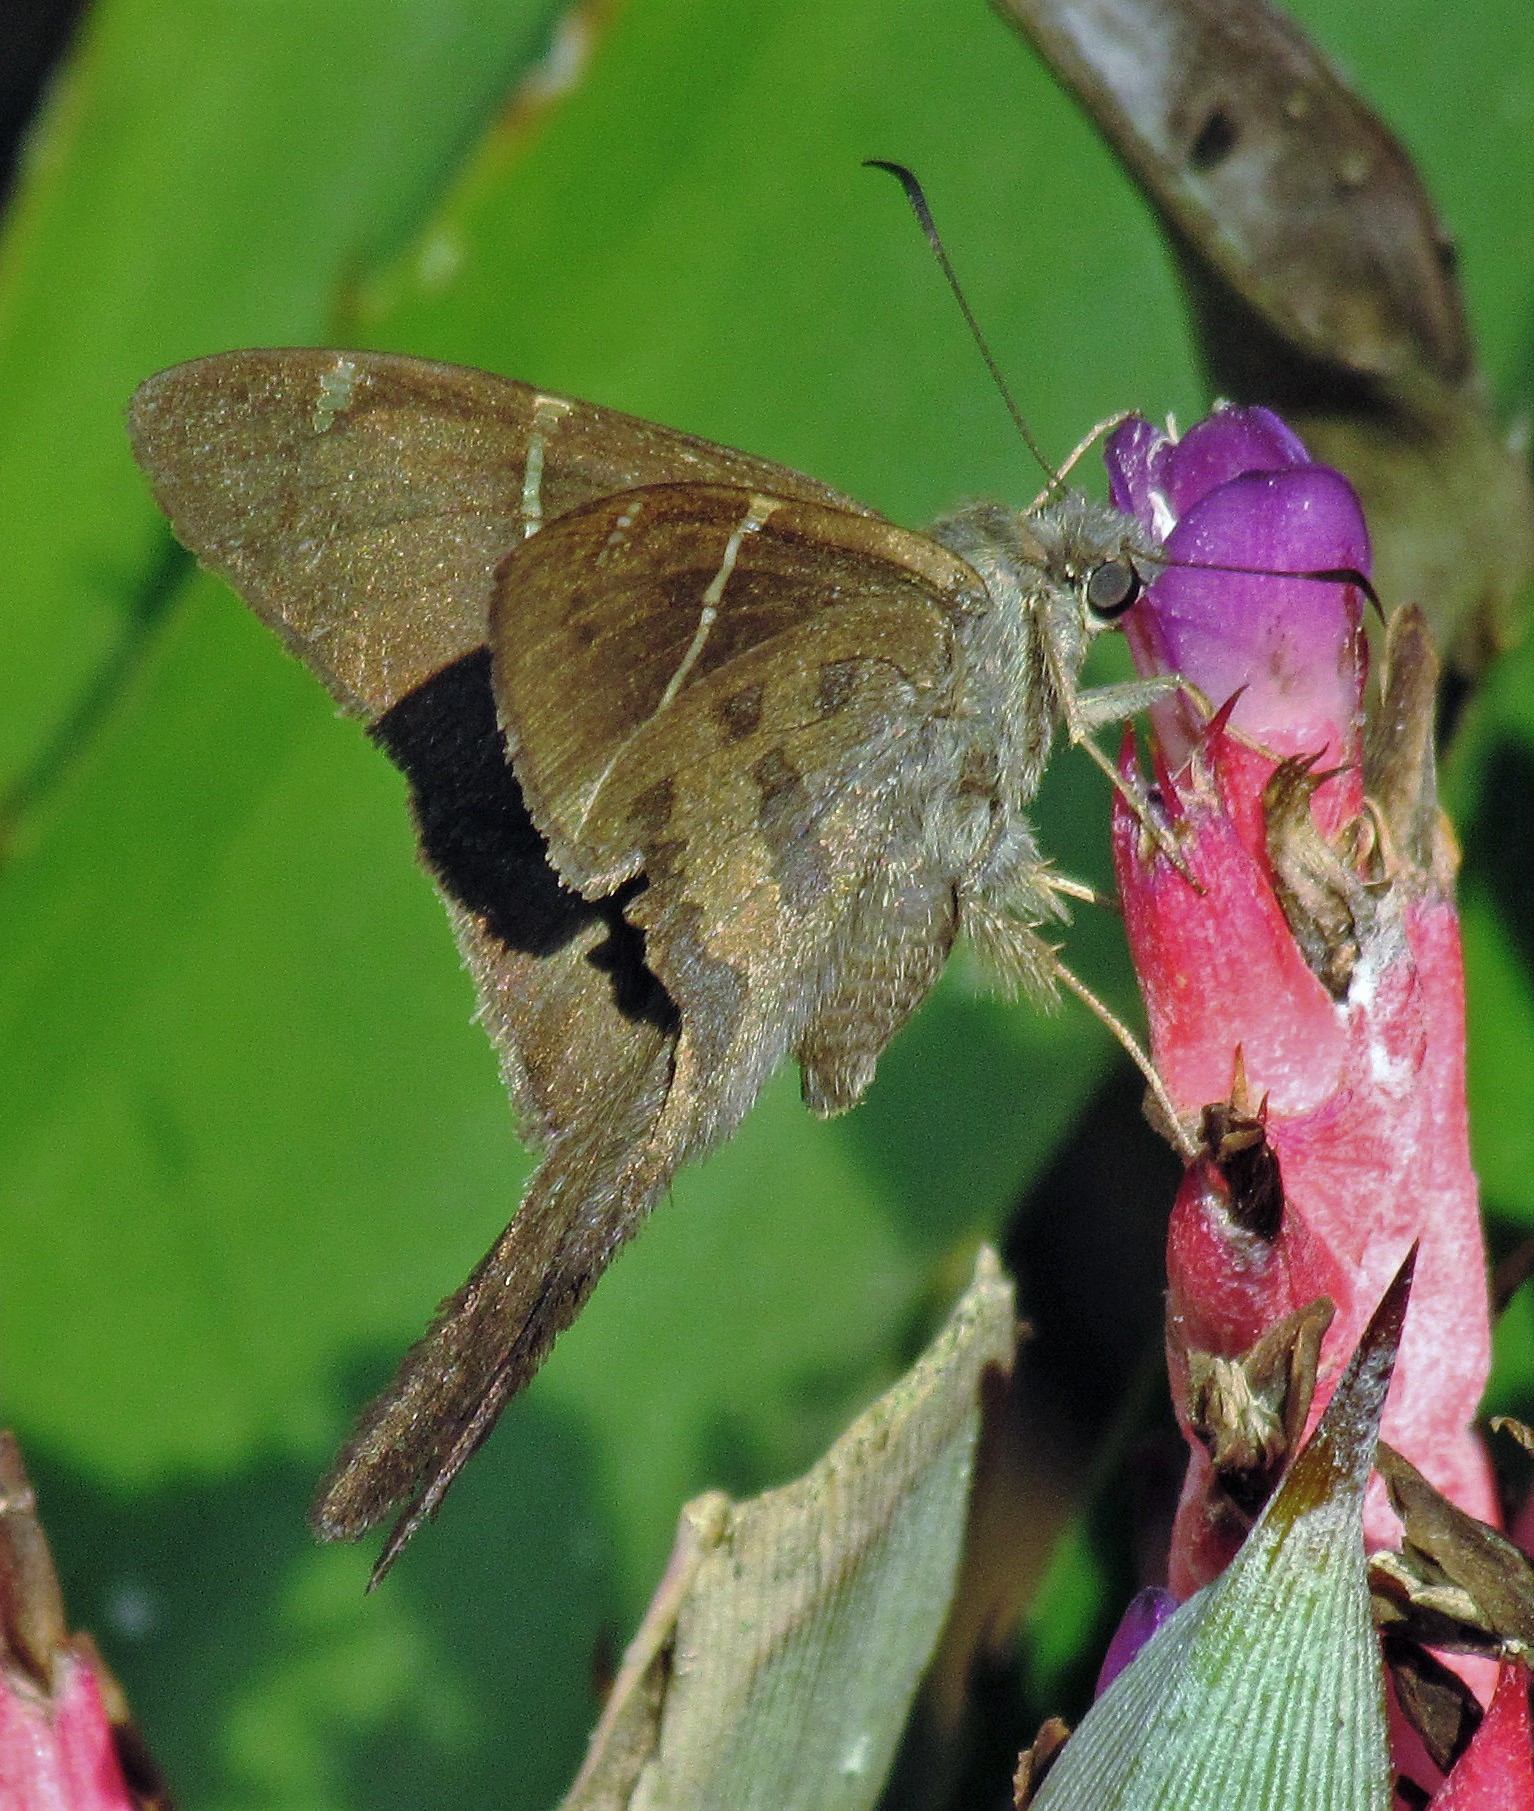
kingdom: Animalia
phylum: Arthropoda
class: Insecta
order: Lepidoptera
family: Hesperiidae
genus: Urbanus
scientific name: Urbanus teleus
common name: Teleus longtail
